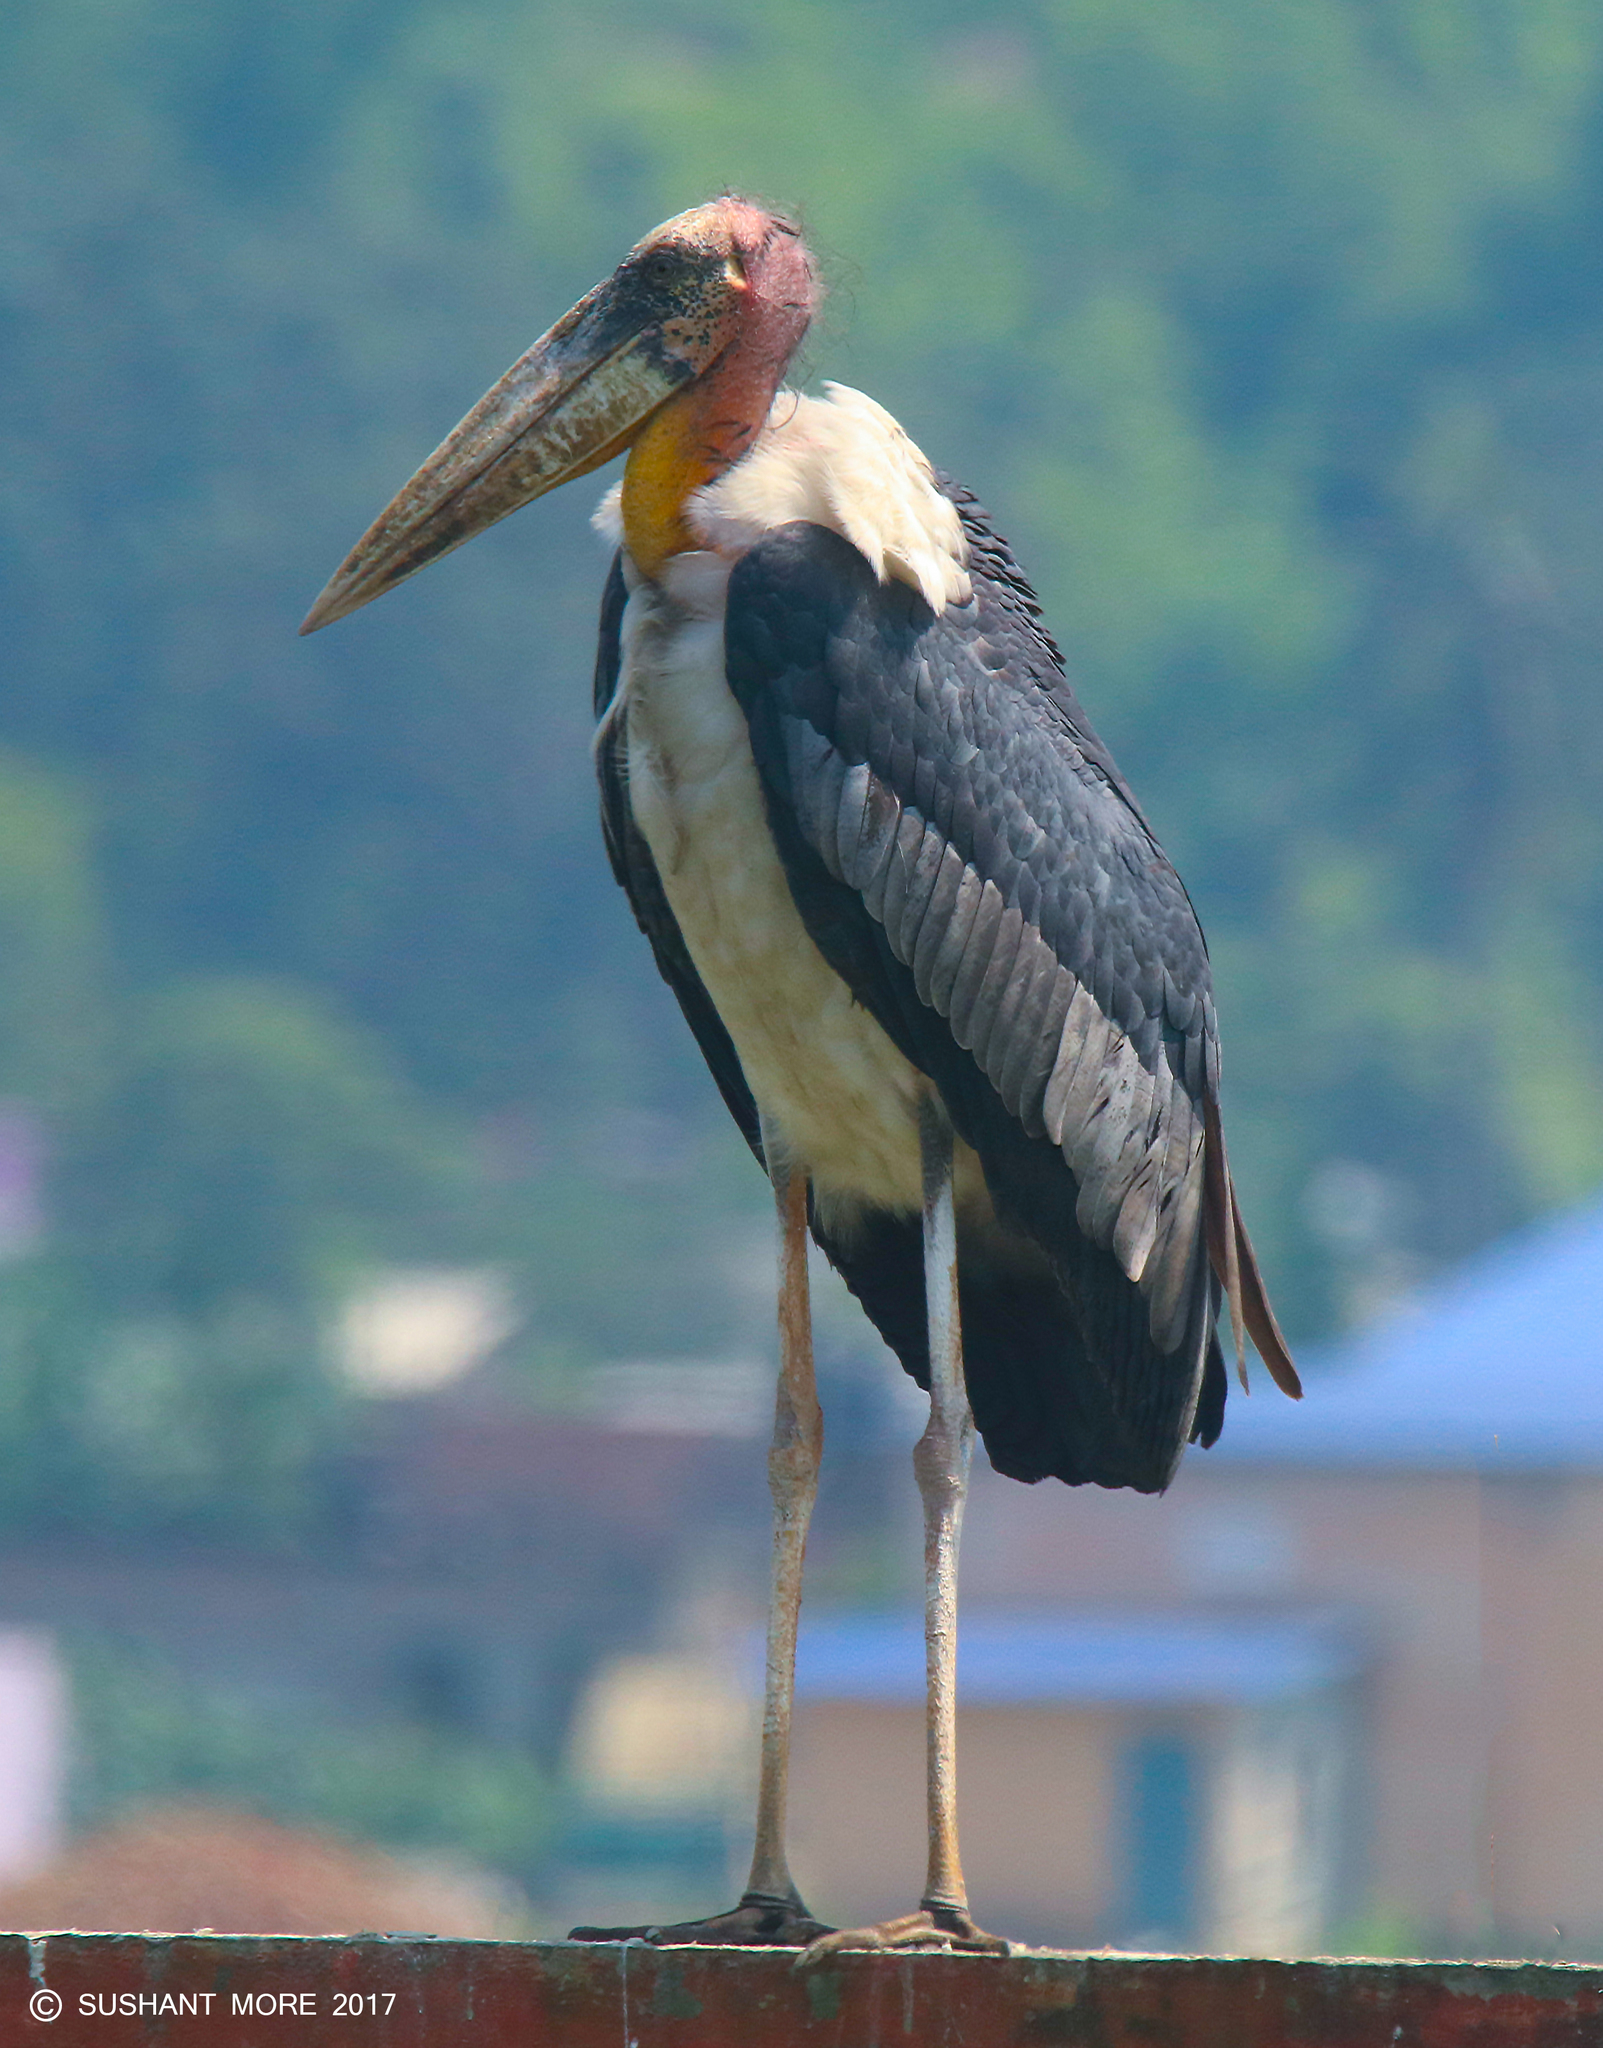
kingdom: Animalia
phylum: Chordata
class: Aves
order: Ciconiiformes
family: Ciconiidae
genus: Leptoptilos
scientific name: Leptoptilos dubius
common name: Greater adjutant
